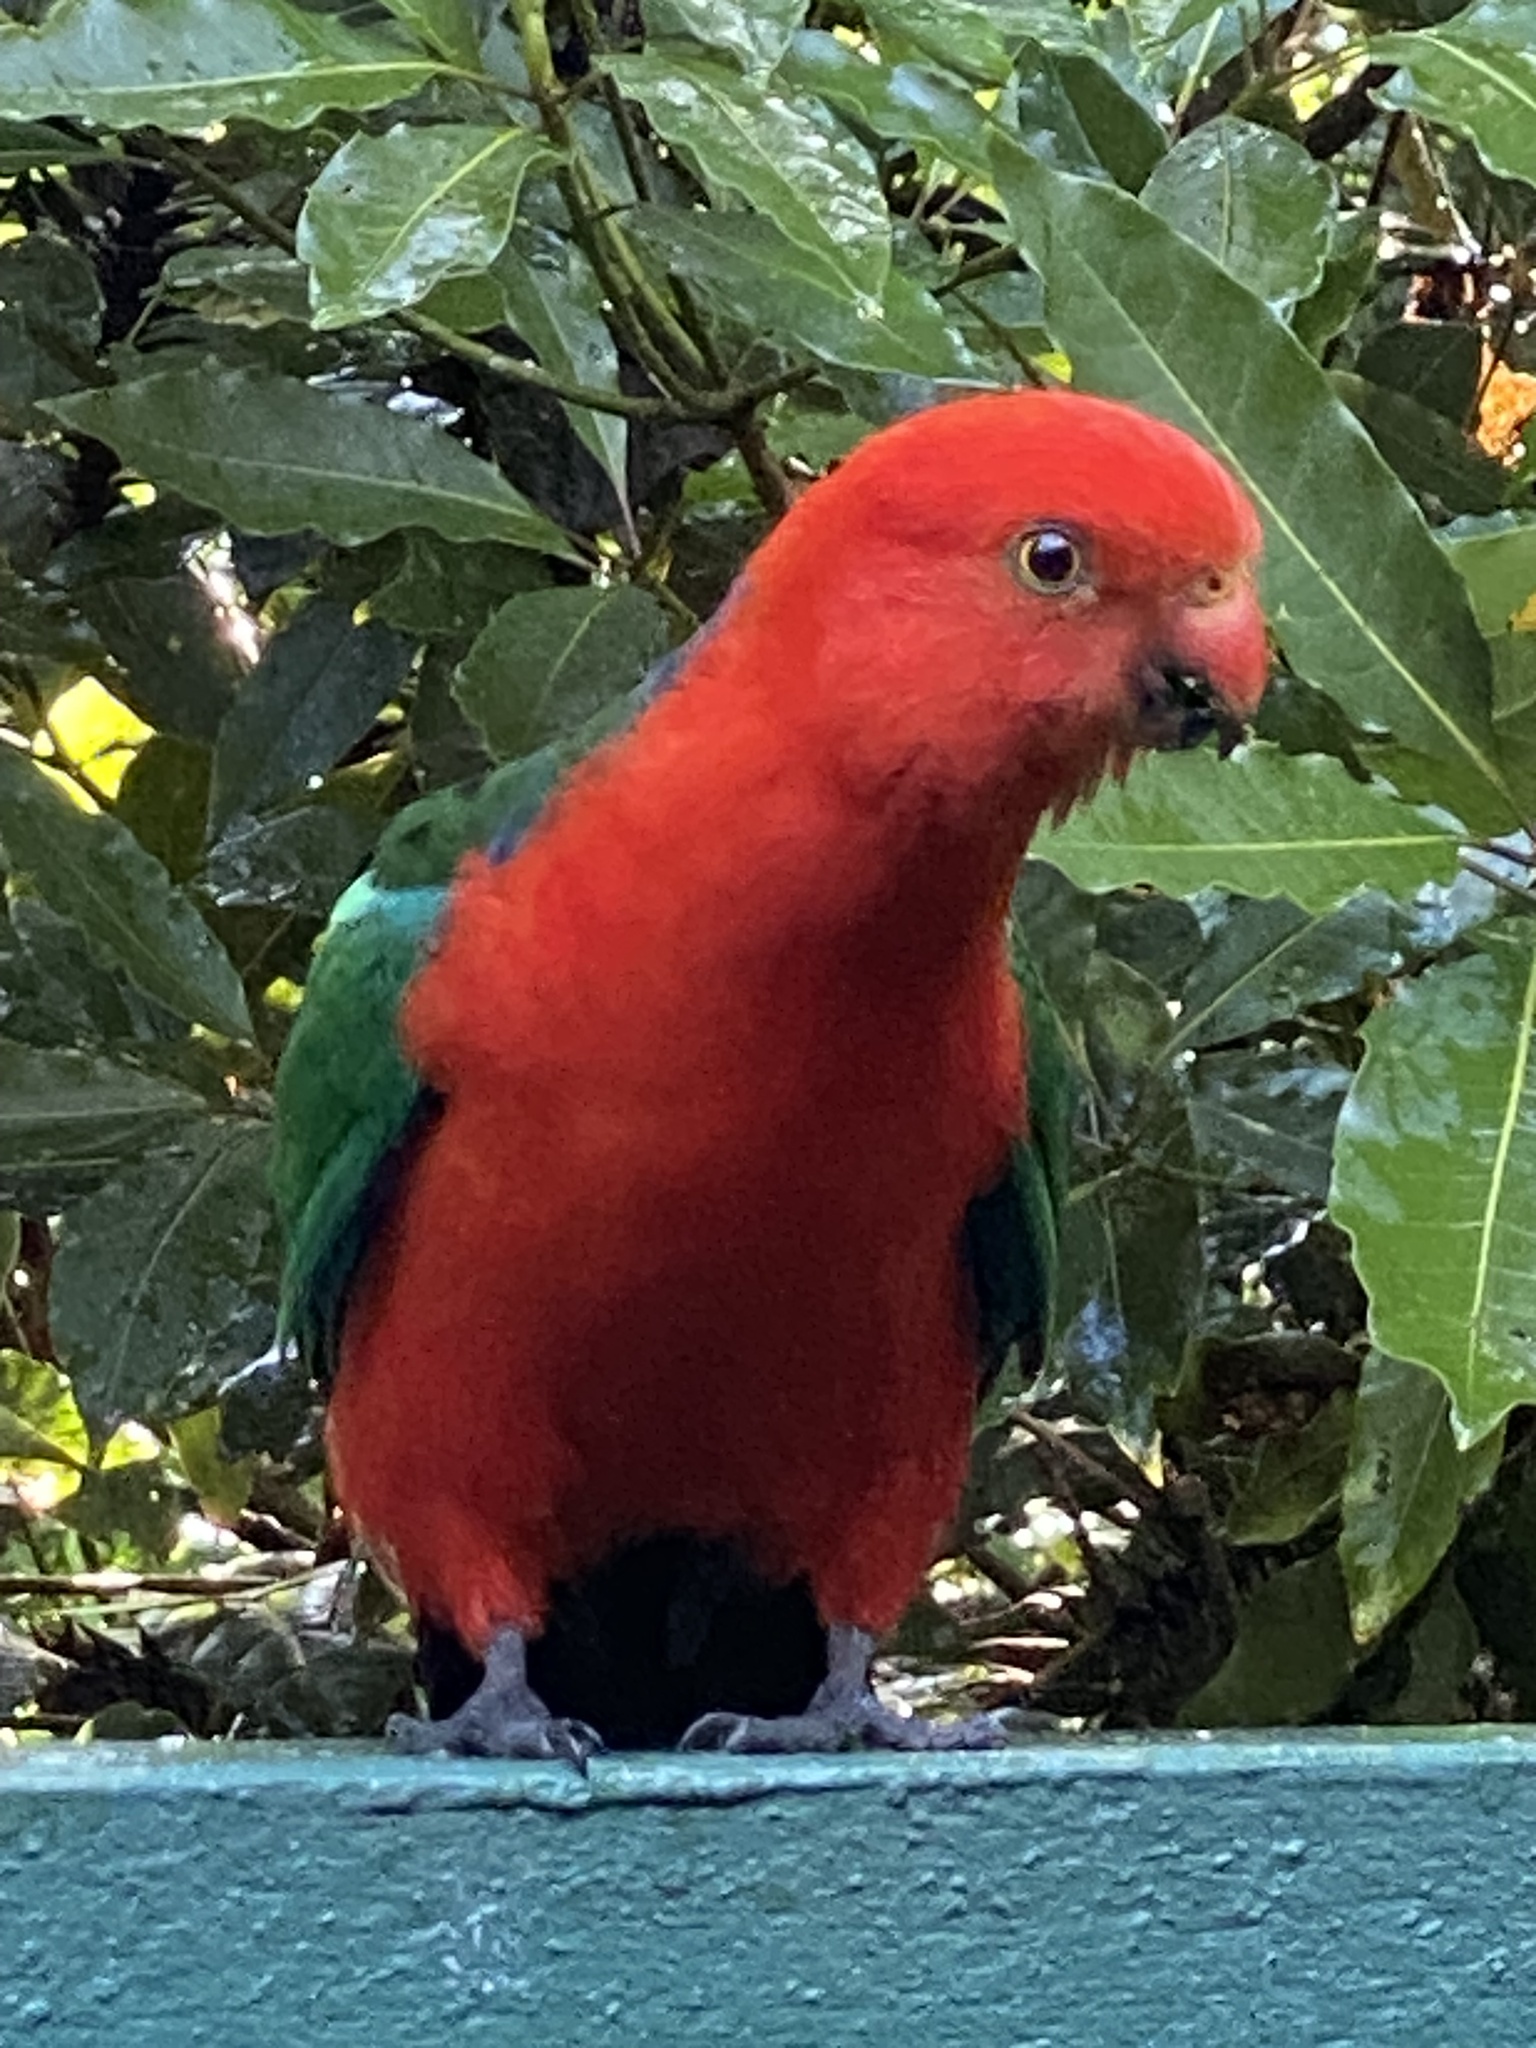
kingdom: Animalia
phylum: Chordata
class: Aves
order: Psittaciformes
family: Psittacidae
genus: Alisterus
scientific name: Alisterus scapularis
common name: Australian king parrot
